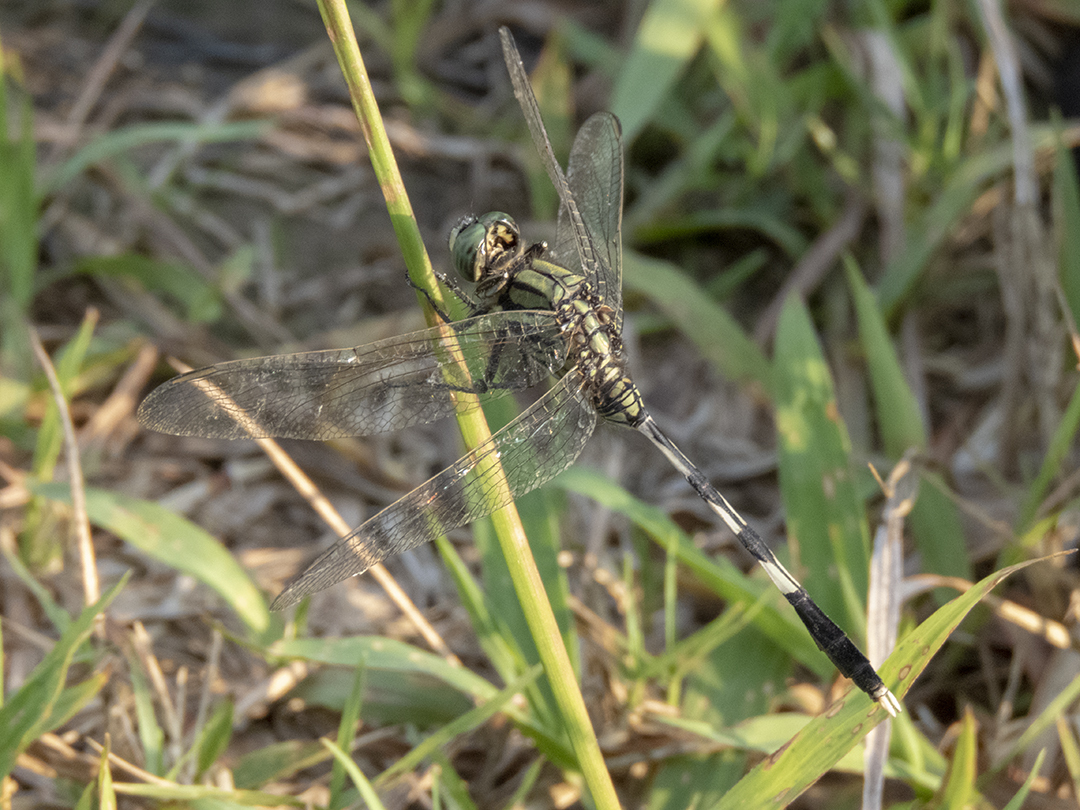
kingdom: Animalia
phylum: Arthropoda
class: Insecta
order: Odonata
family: Libellulidae
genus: Orthetrum
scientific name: Orthetrum sabina
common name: Slender skimmer
